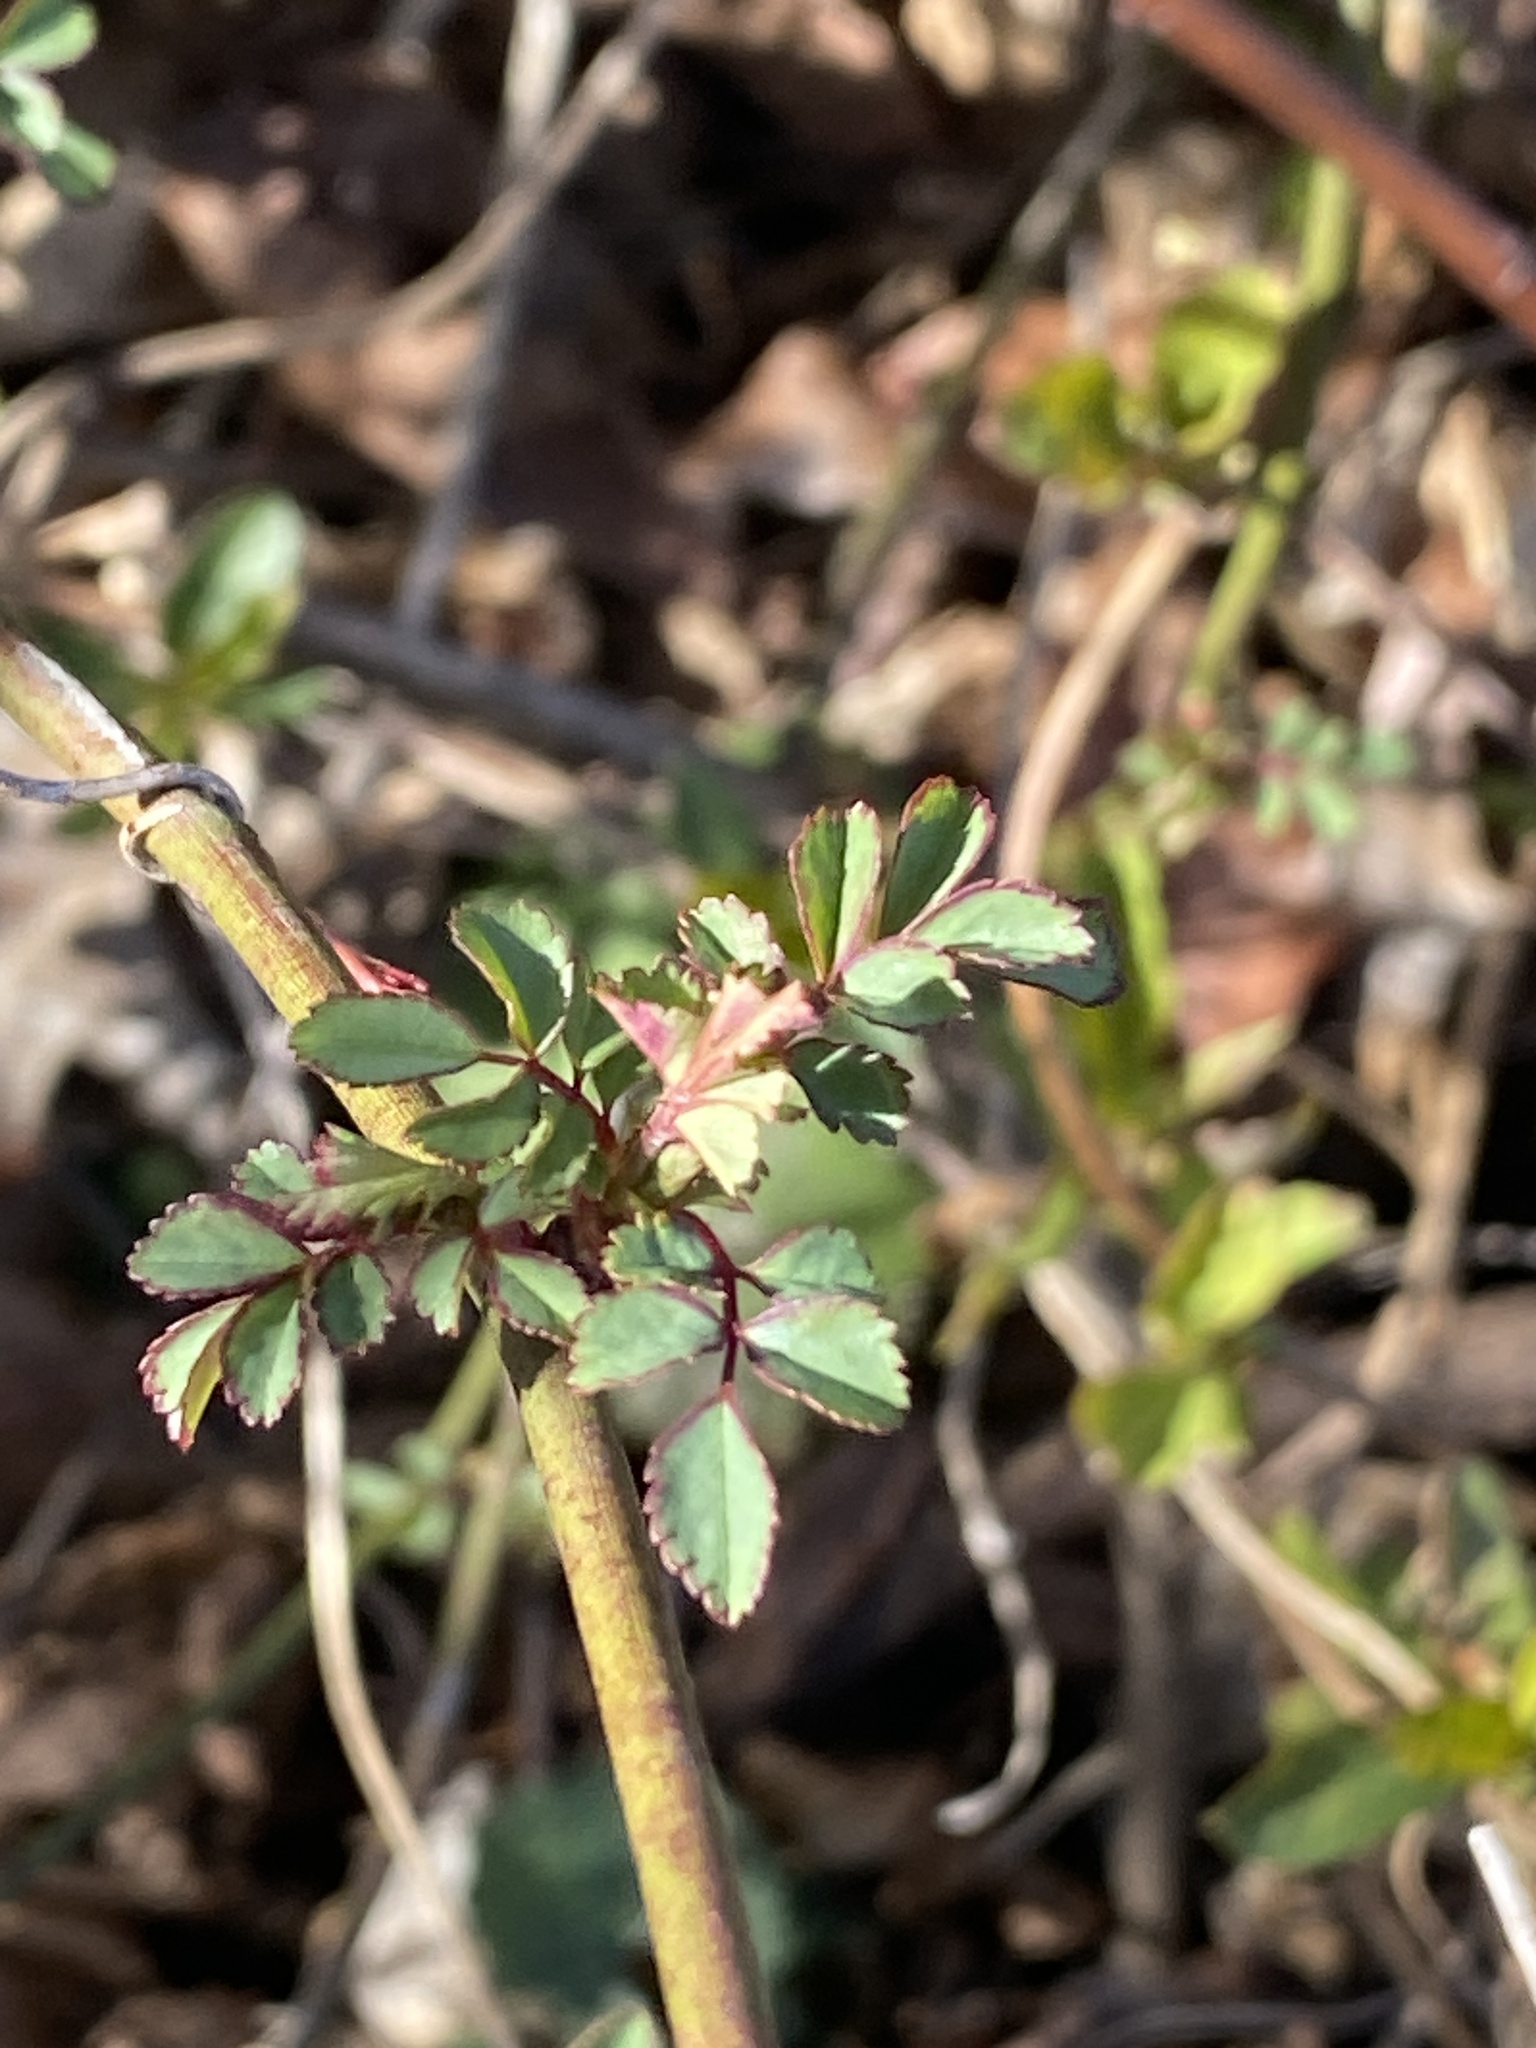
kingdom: Plantae
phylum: Tracheophyta
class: Magnoliopsida
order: Rosales
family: Rosaceae
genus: Rosa
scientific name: Rosa multiflora
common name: Multiflora rose
